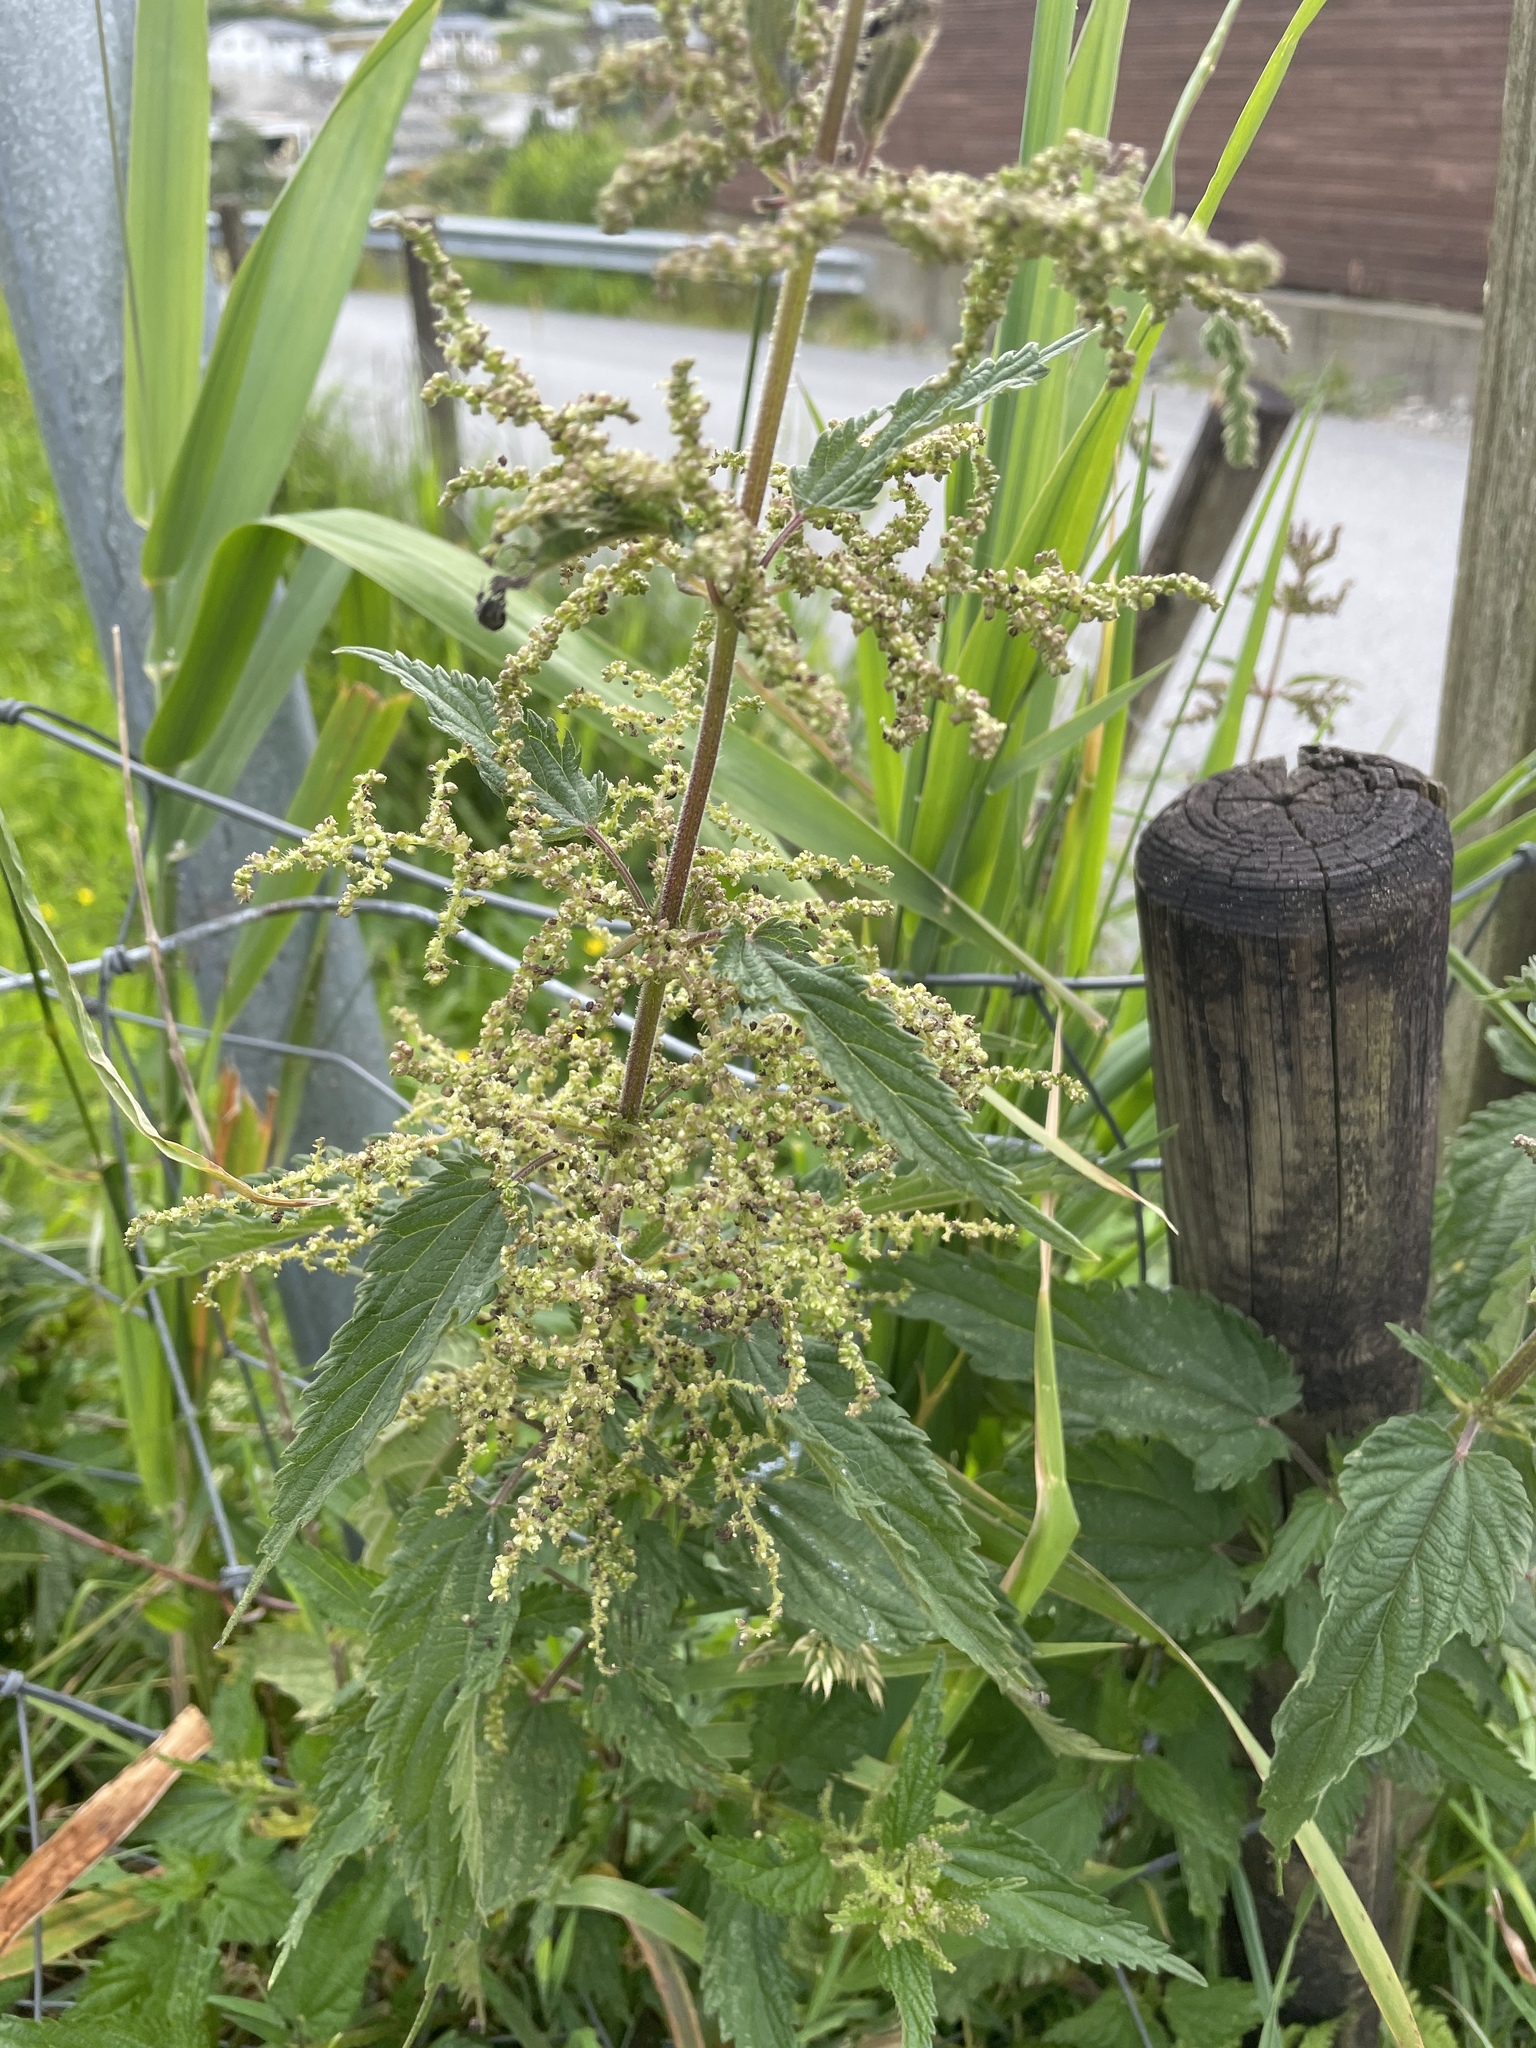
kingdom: Plantae
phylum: Tracheophyta
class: Magnoliopsida
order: Rosales
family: Urticaceae
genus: Urtica
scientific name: Urtica dioica
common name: Common nettle
